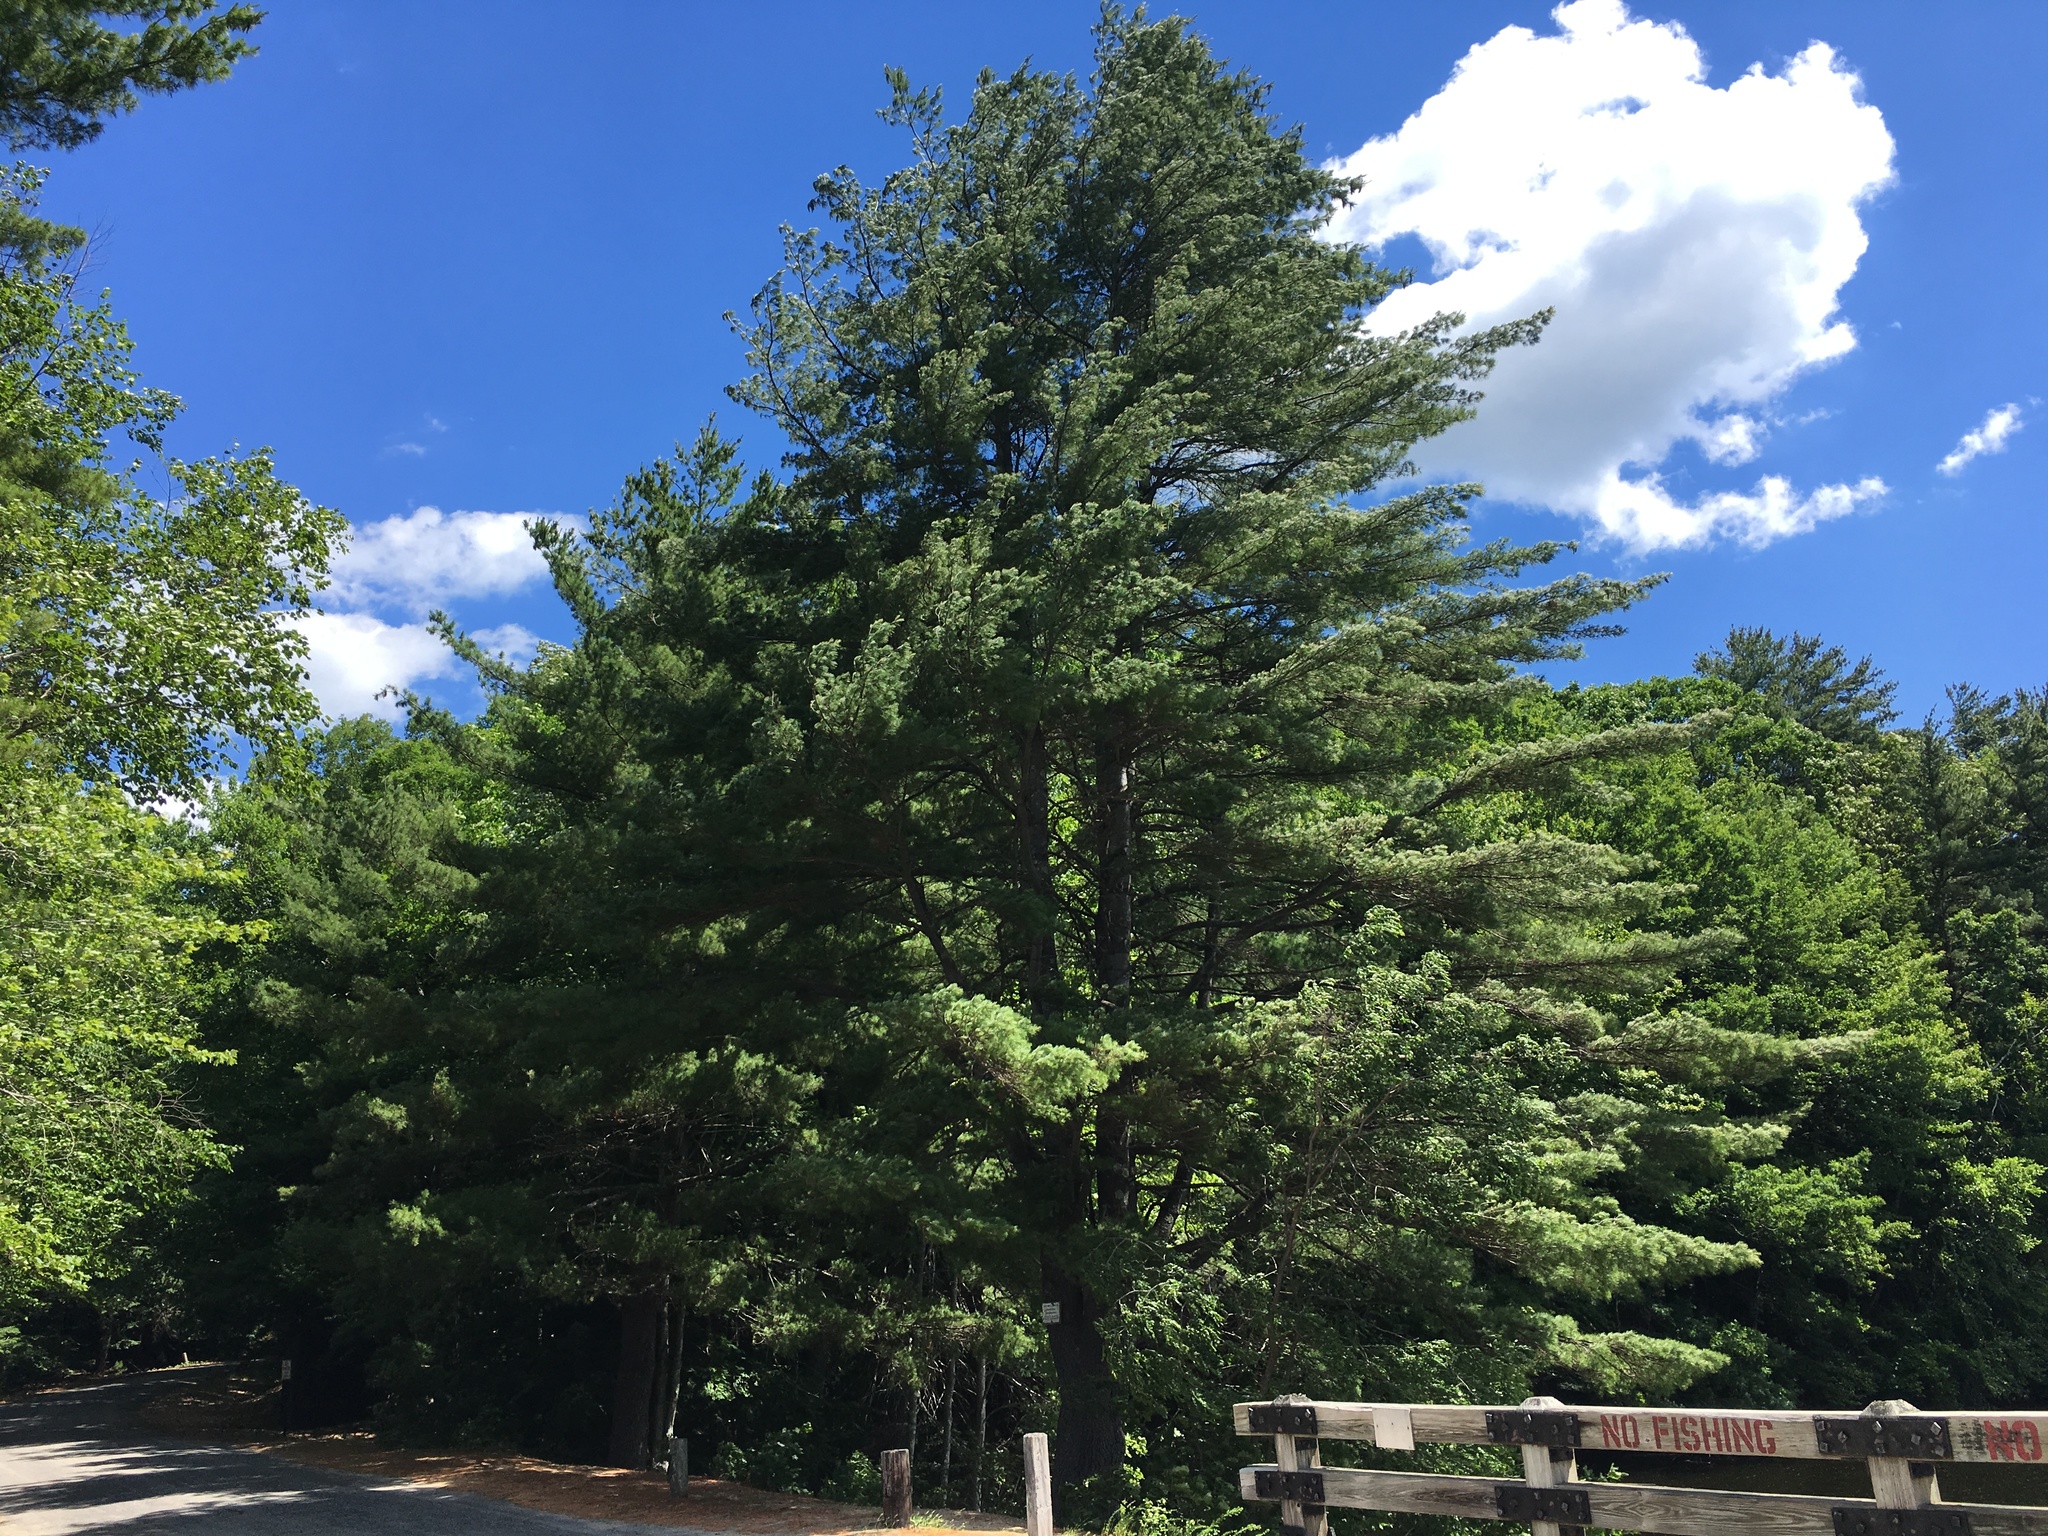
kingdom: Plantae
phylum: Tracheophyta
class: Pinopsida
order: Pinales
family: Pinaceae
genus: Pinus
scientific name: Pinus strobus
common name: Weymouth pine
